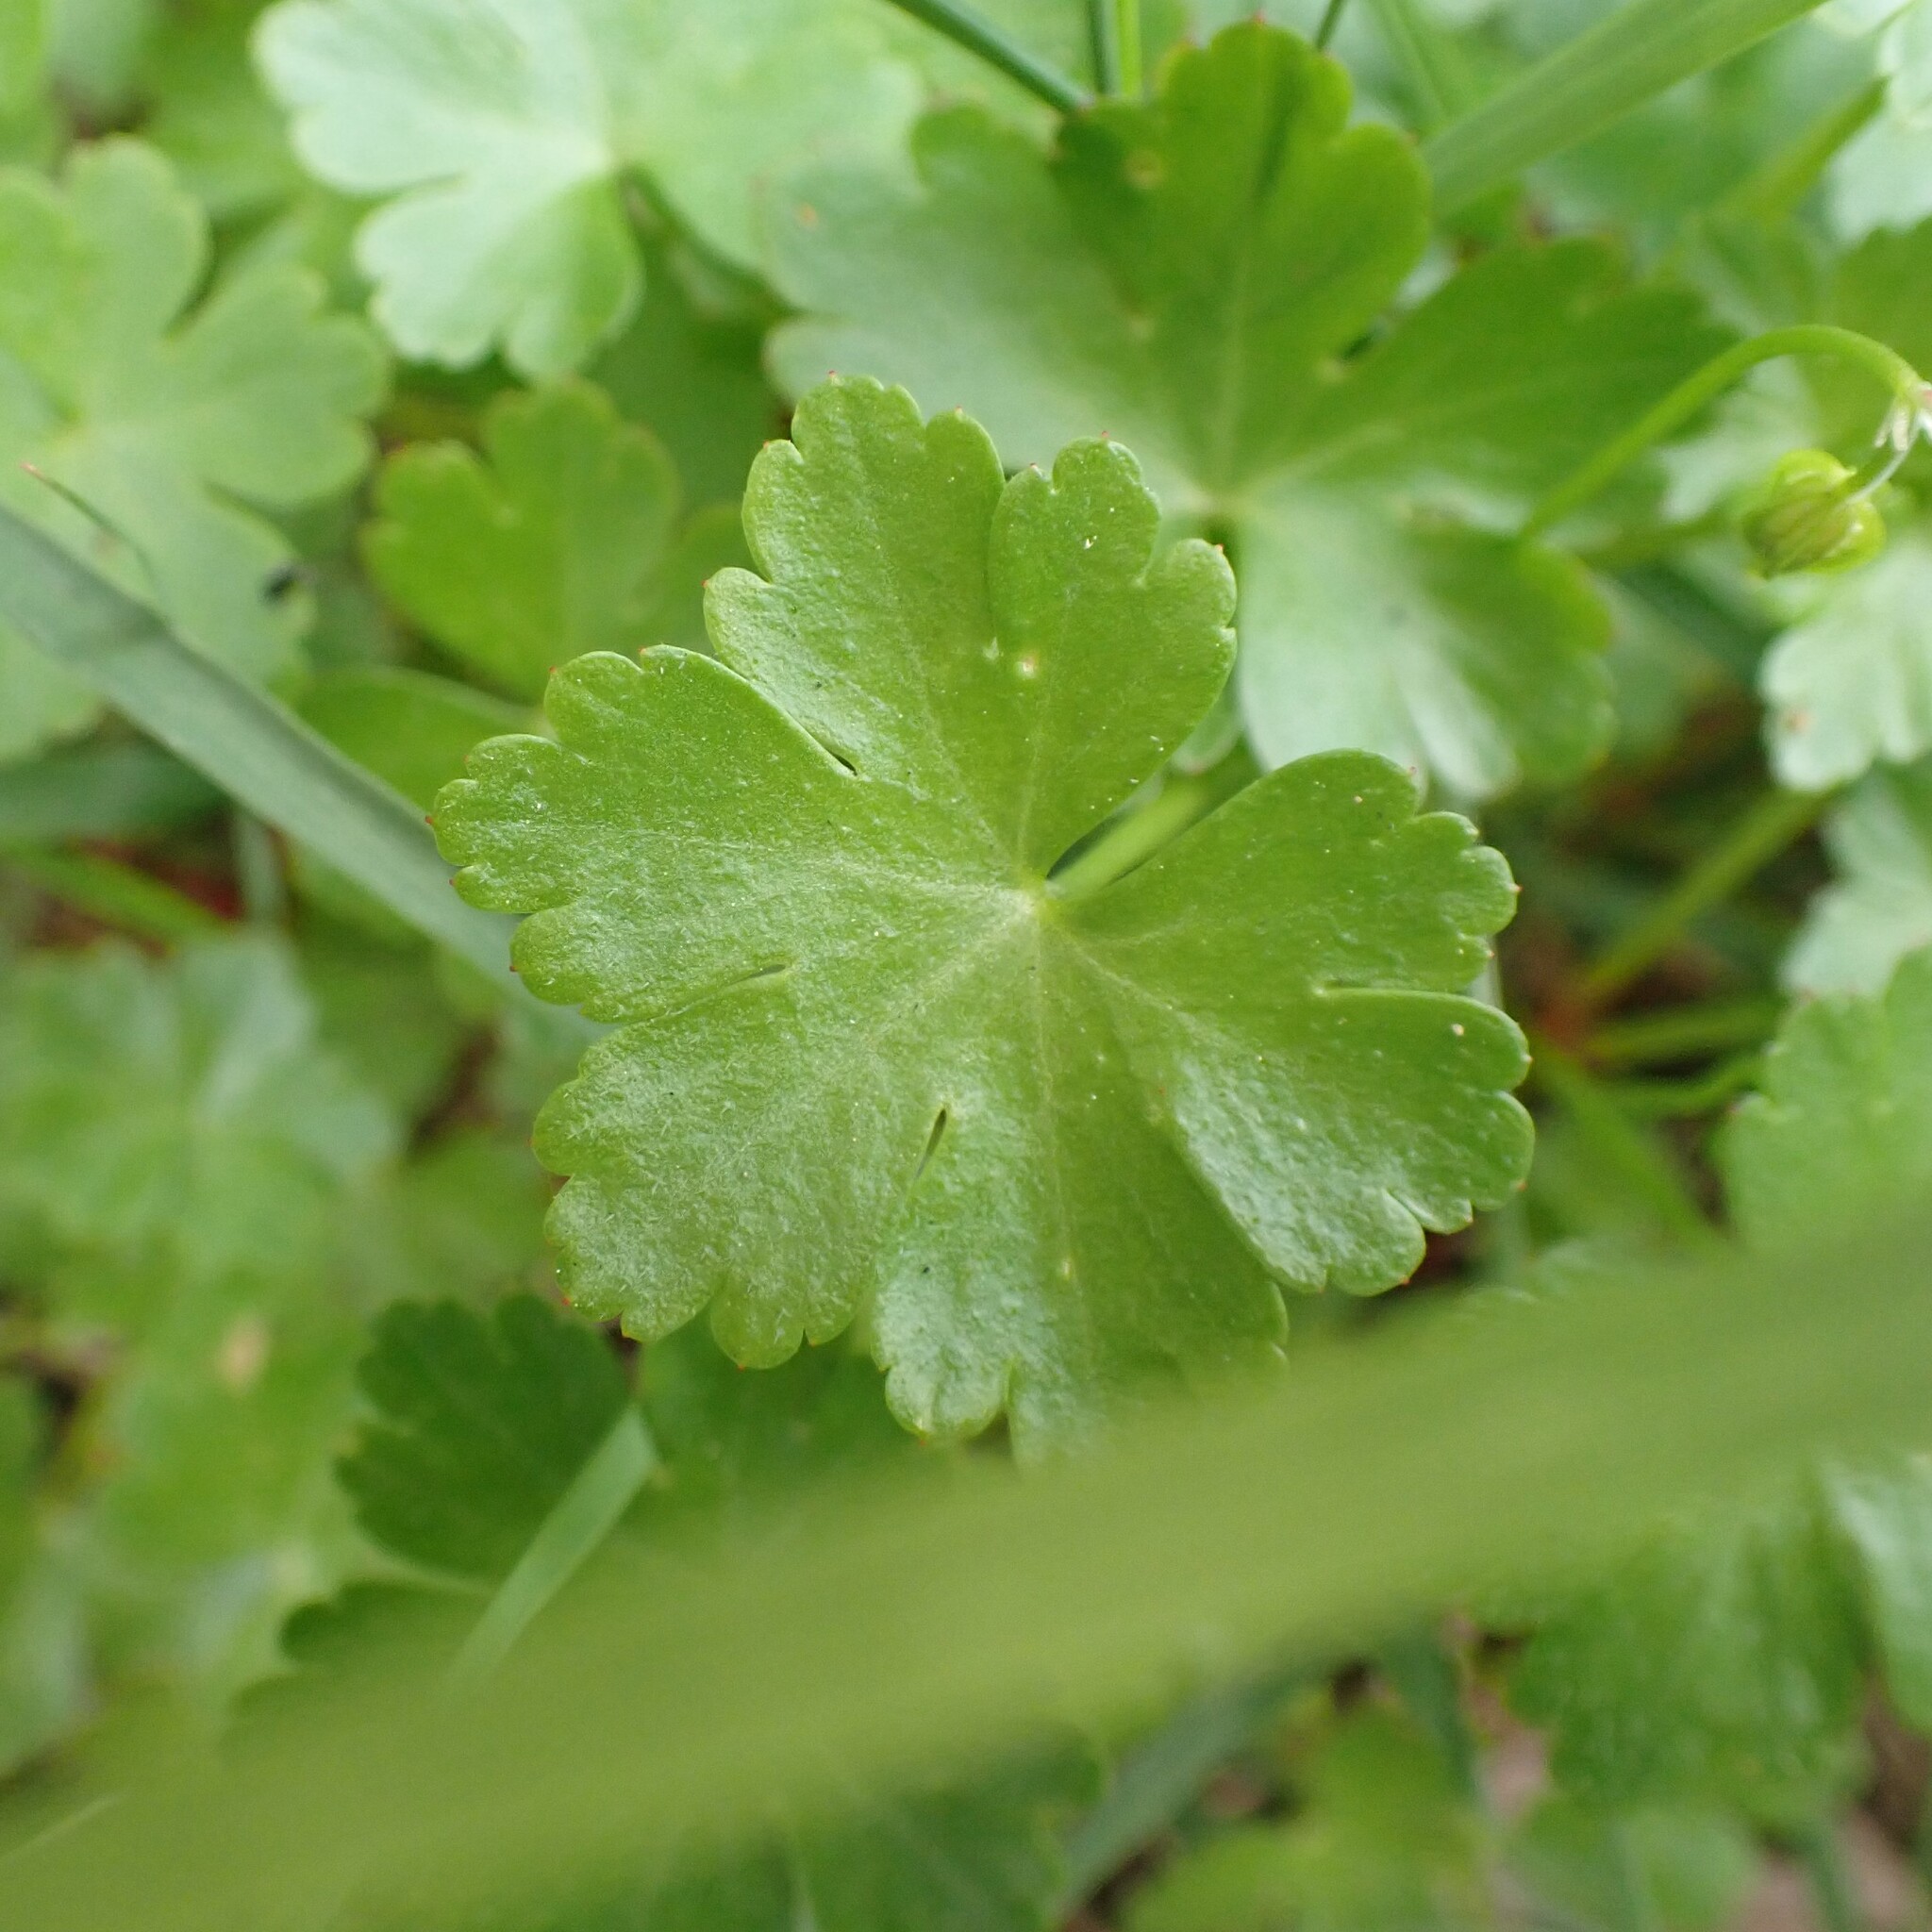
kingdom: Plantae
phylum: Tracheophyta
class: Magnoliopsida
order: Geraniales
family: Geraniaceae
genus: Geranium
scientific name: Geranium lucidum
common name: Shining crane's-bill
